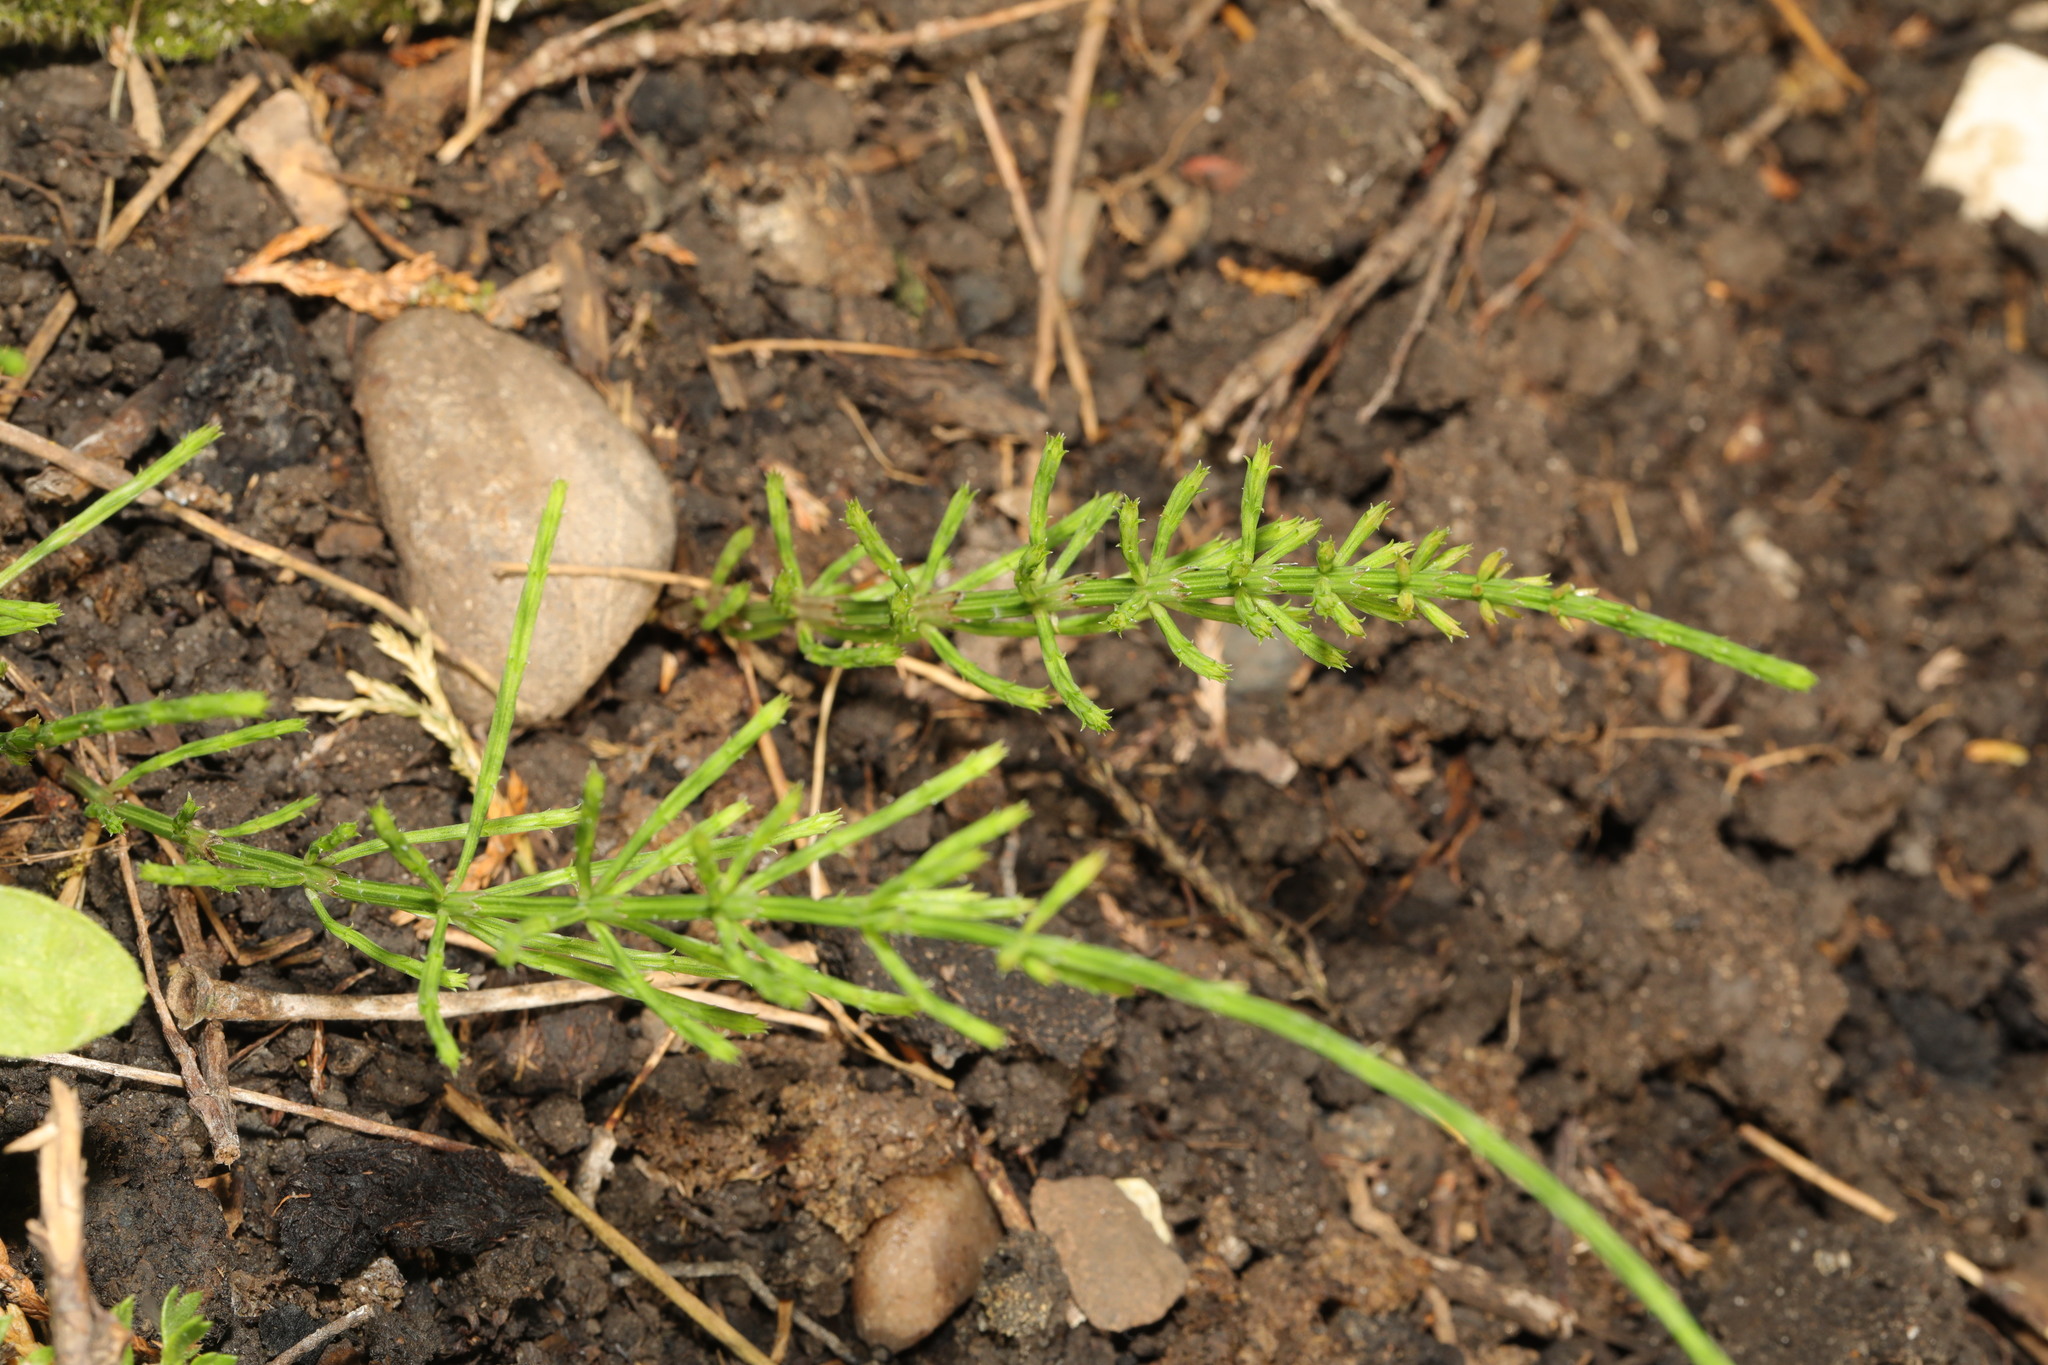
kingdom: Plantae
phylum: Tracheophyta
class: Polypodiopsida
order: Equisetales
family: Equisetaceae
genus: Equisetum
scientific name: Equisetum arvense
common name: Field horsetail
